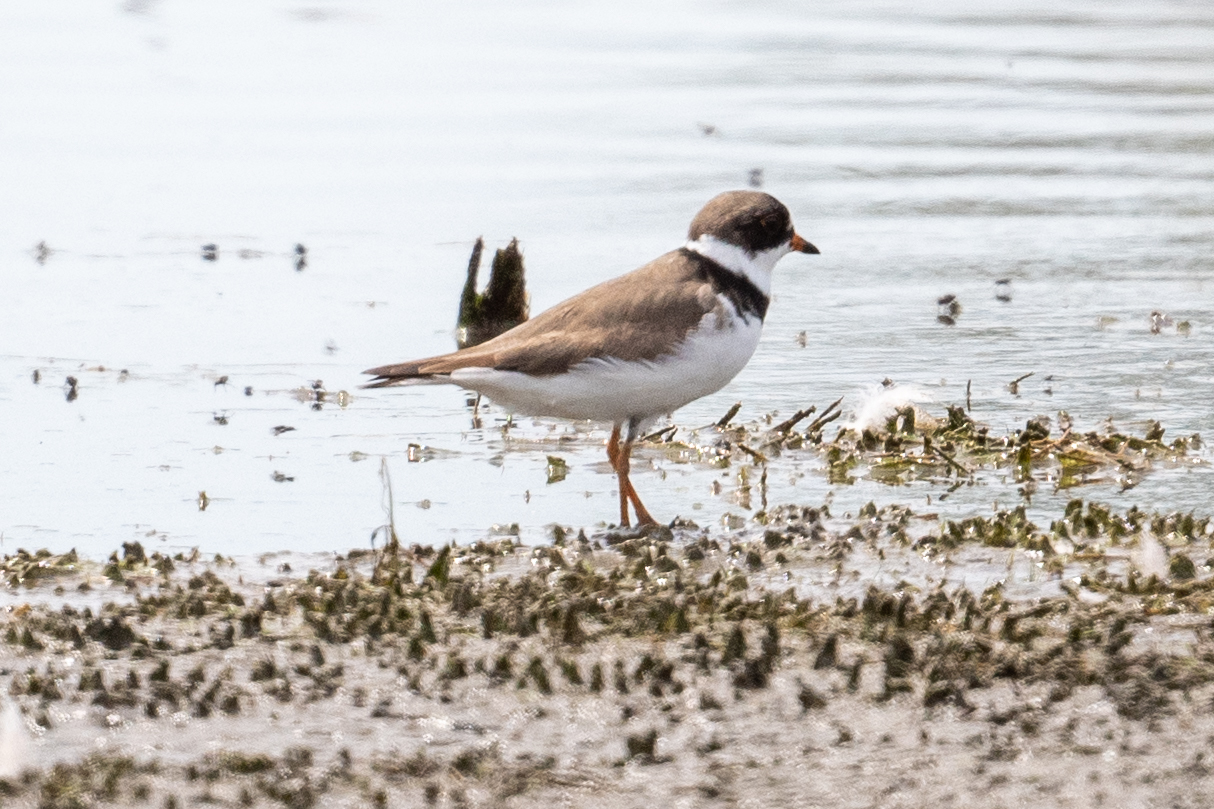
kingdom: Animalia
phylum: Chordata
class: Aves
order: Charadriiformes
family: Charadriidae
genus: Charadrius
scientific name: Charadrius semipalmatus
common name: Semipalmated plover
